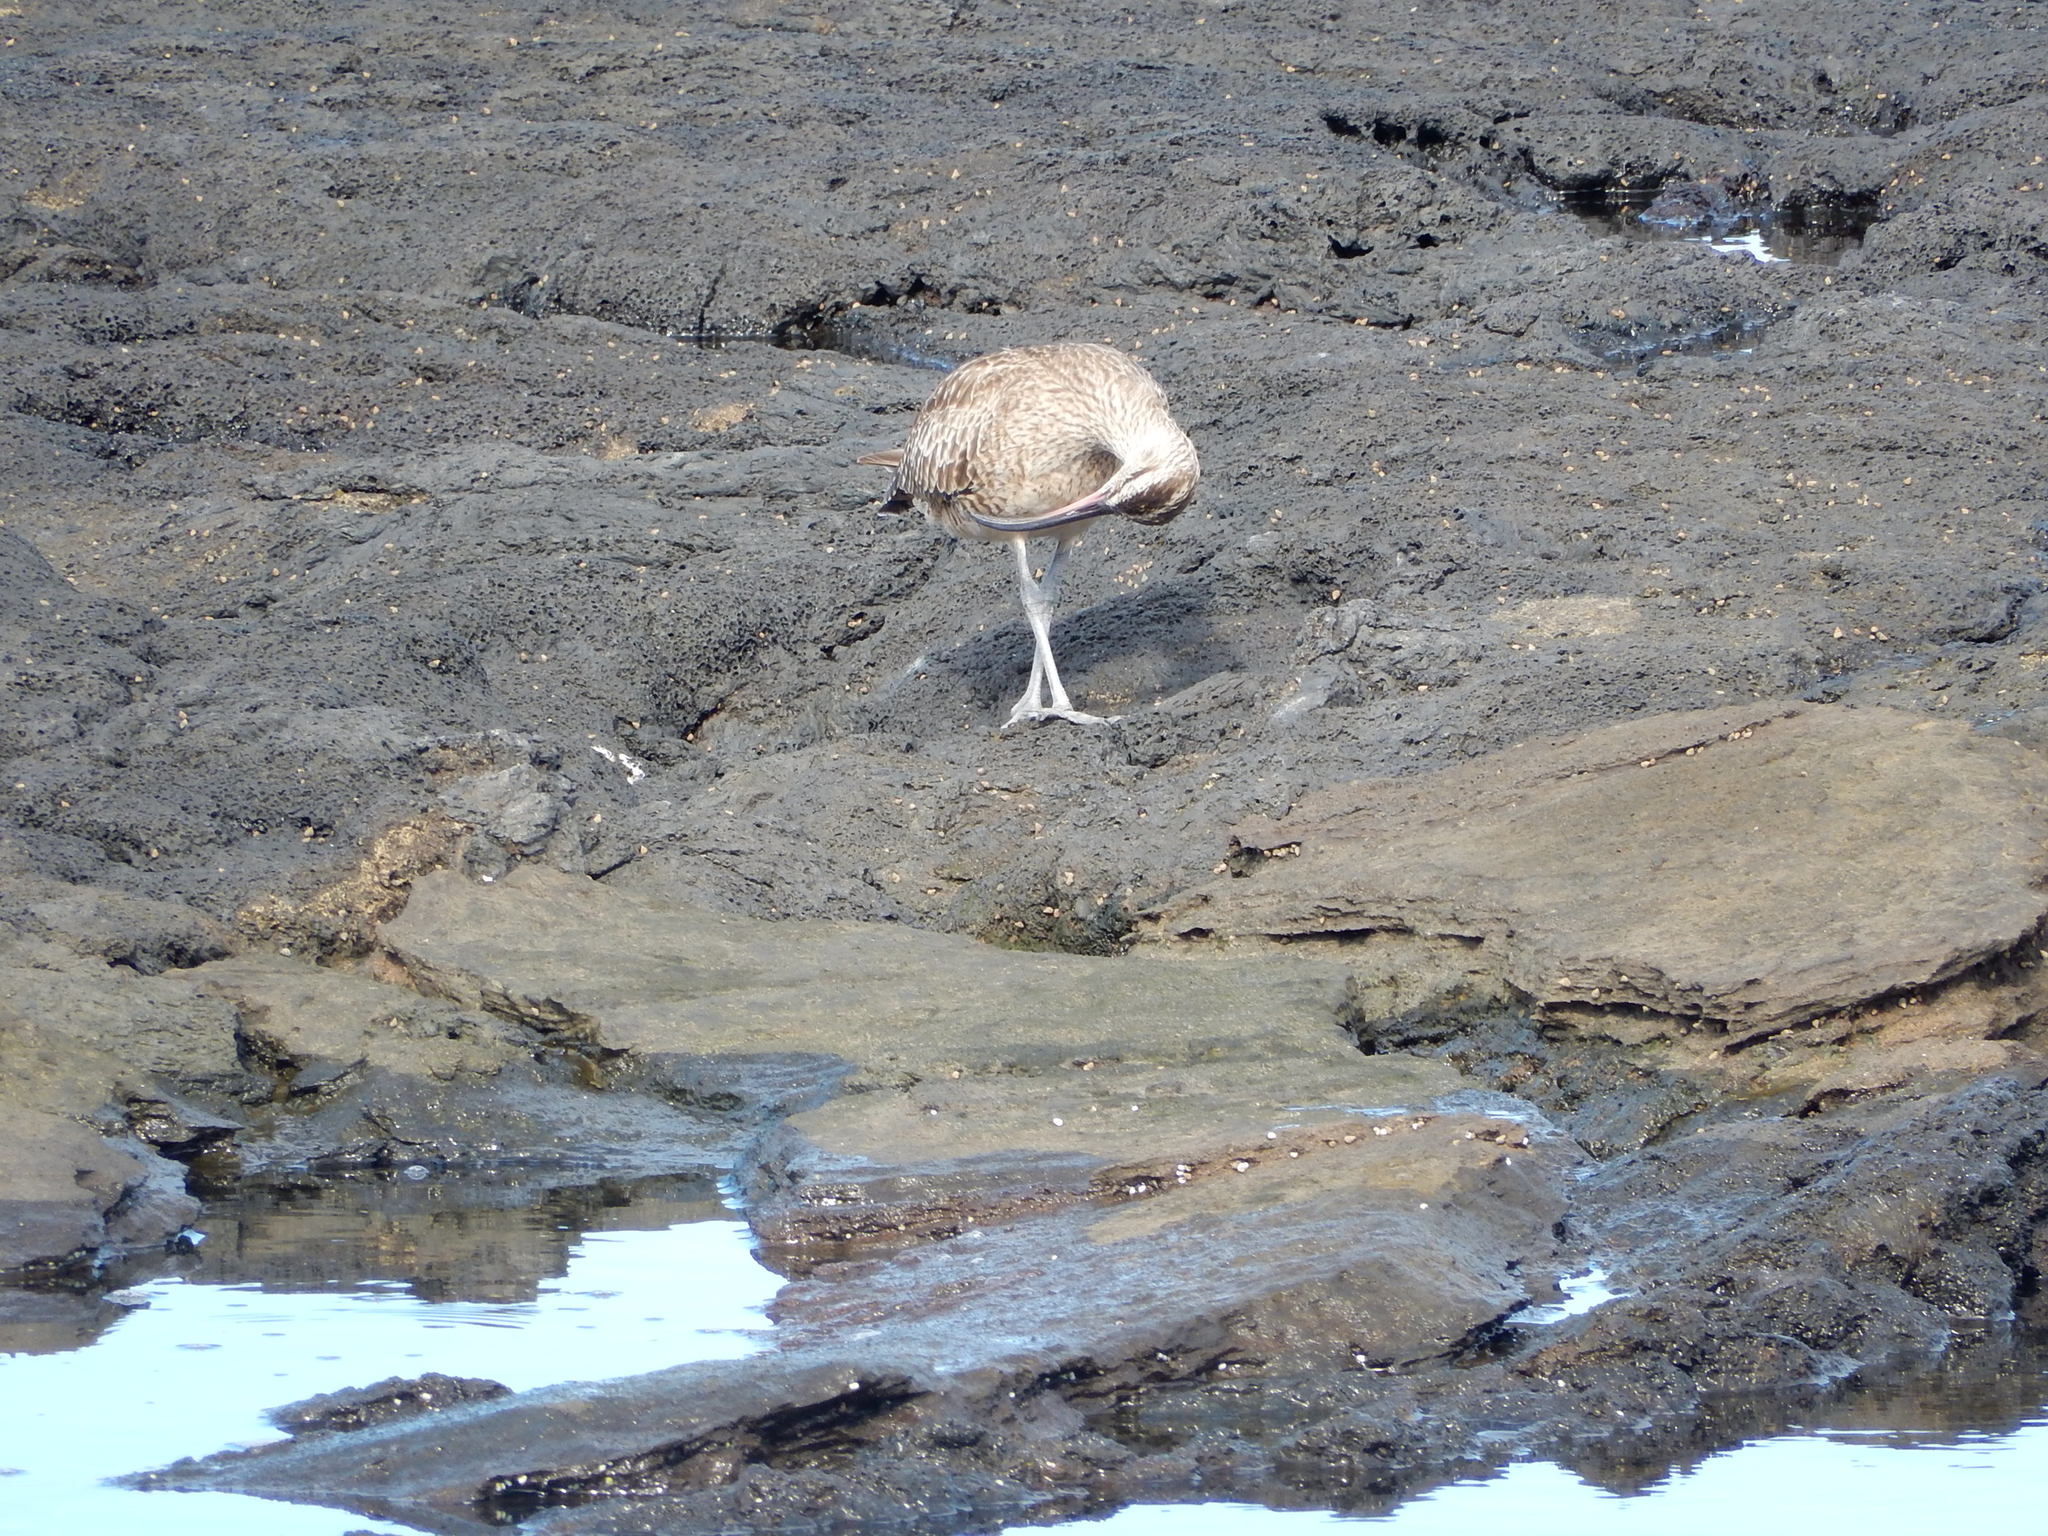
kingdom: Animalia
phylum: Chordata
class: Aves
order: Charadriiformes
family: Scolopacidae
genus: Numenius
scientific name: Numenius hudsonicus
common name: Hudsonian whimbrel
